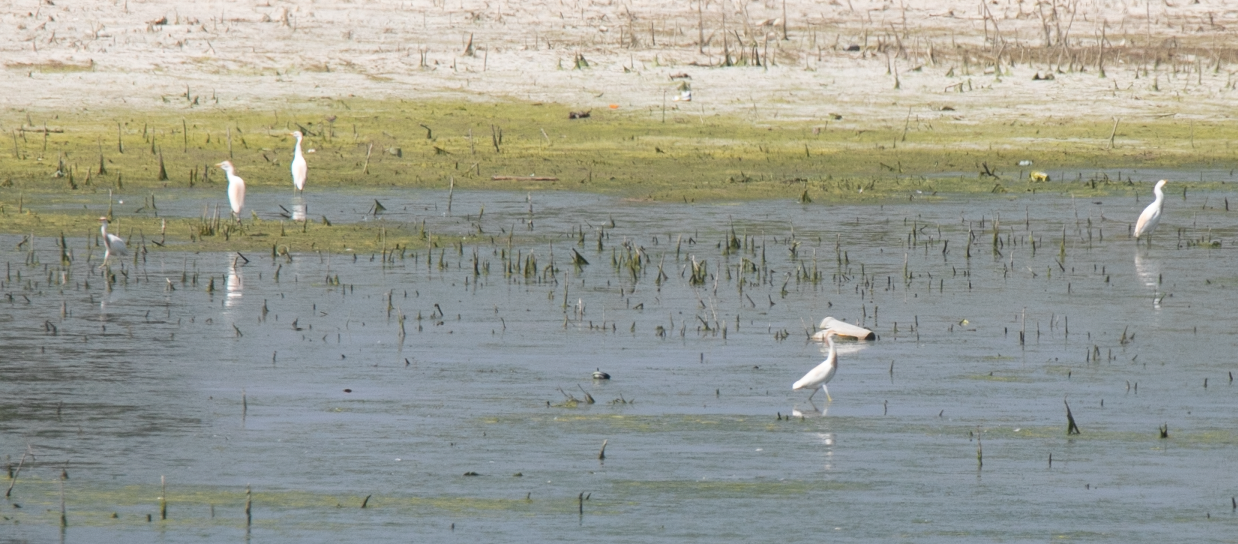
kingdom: Animalia
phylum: Chordata
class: Aves
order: Pelecaniformes
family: Ardeidae
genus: Bubulcus
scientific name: Bubulcus ibis
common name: Cattle egret
